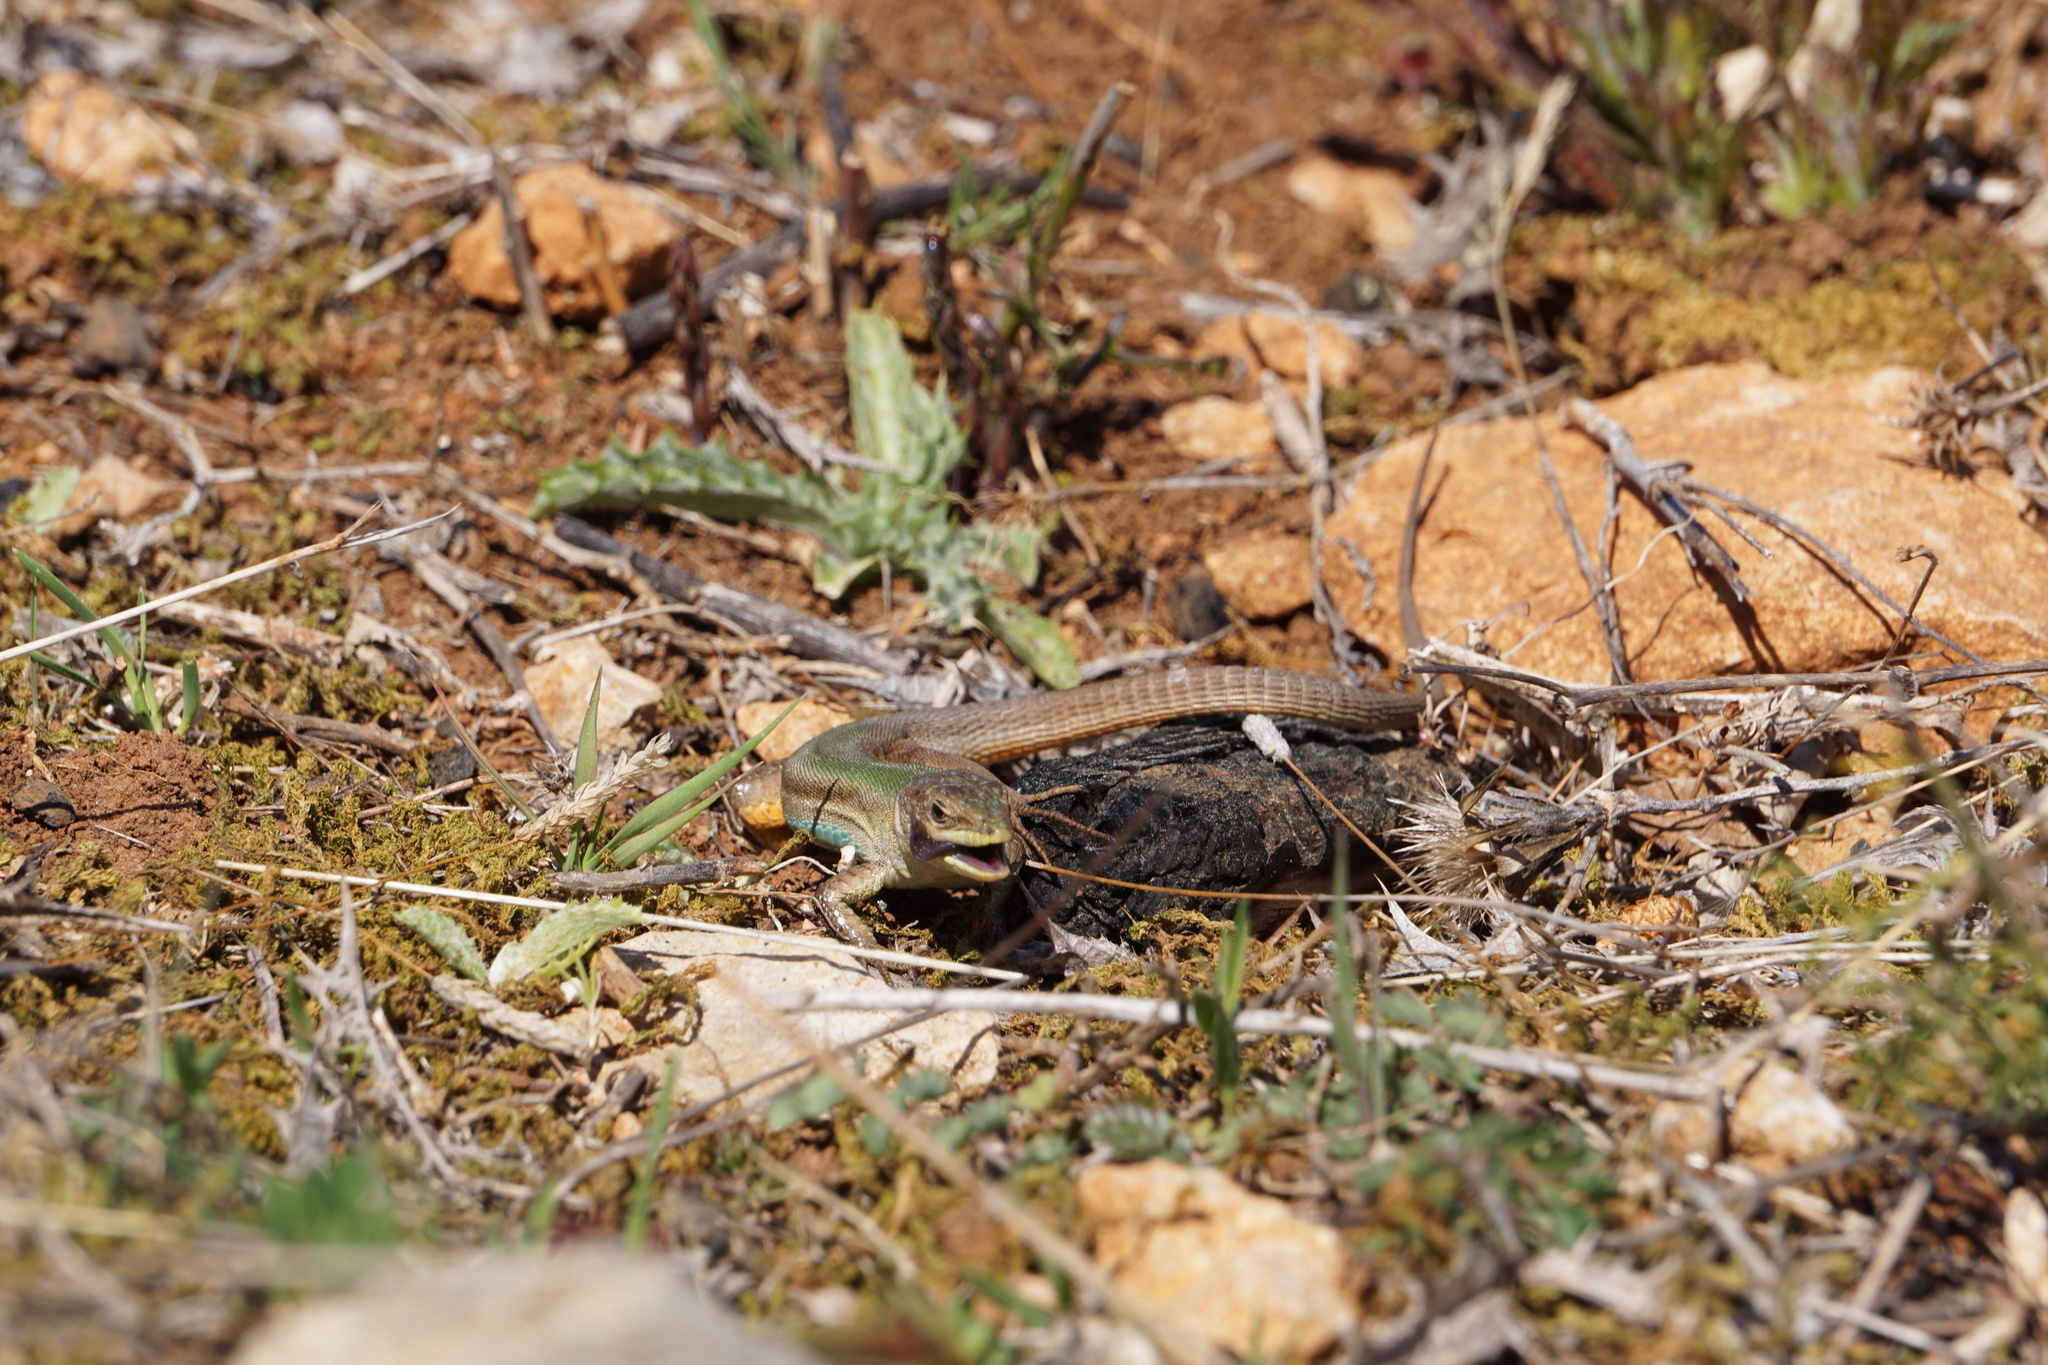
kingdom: Animalia
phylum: Chordata
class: Squamata
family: Lacertidae
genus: Podarcis
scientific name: Podarcis melisellensis
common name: Dalmatian wall lizard
